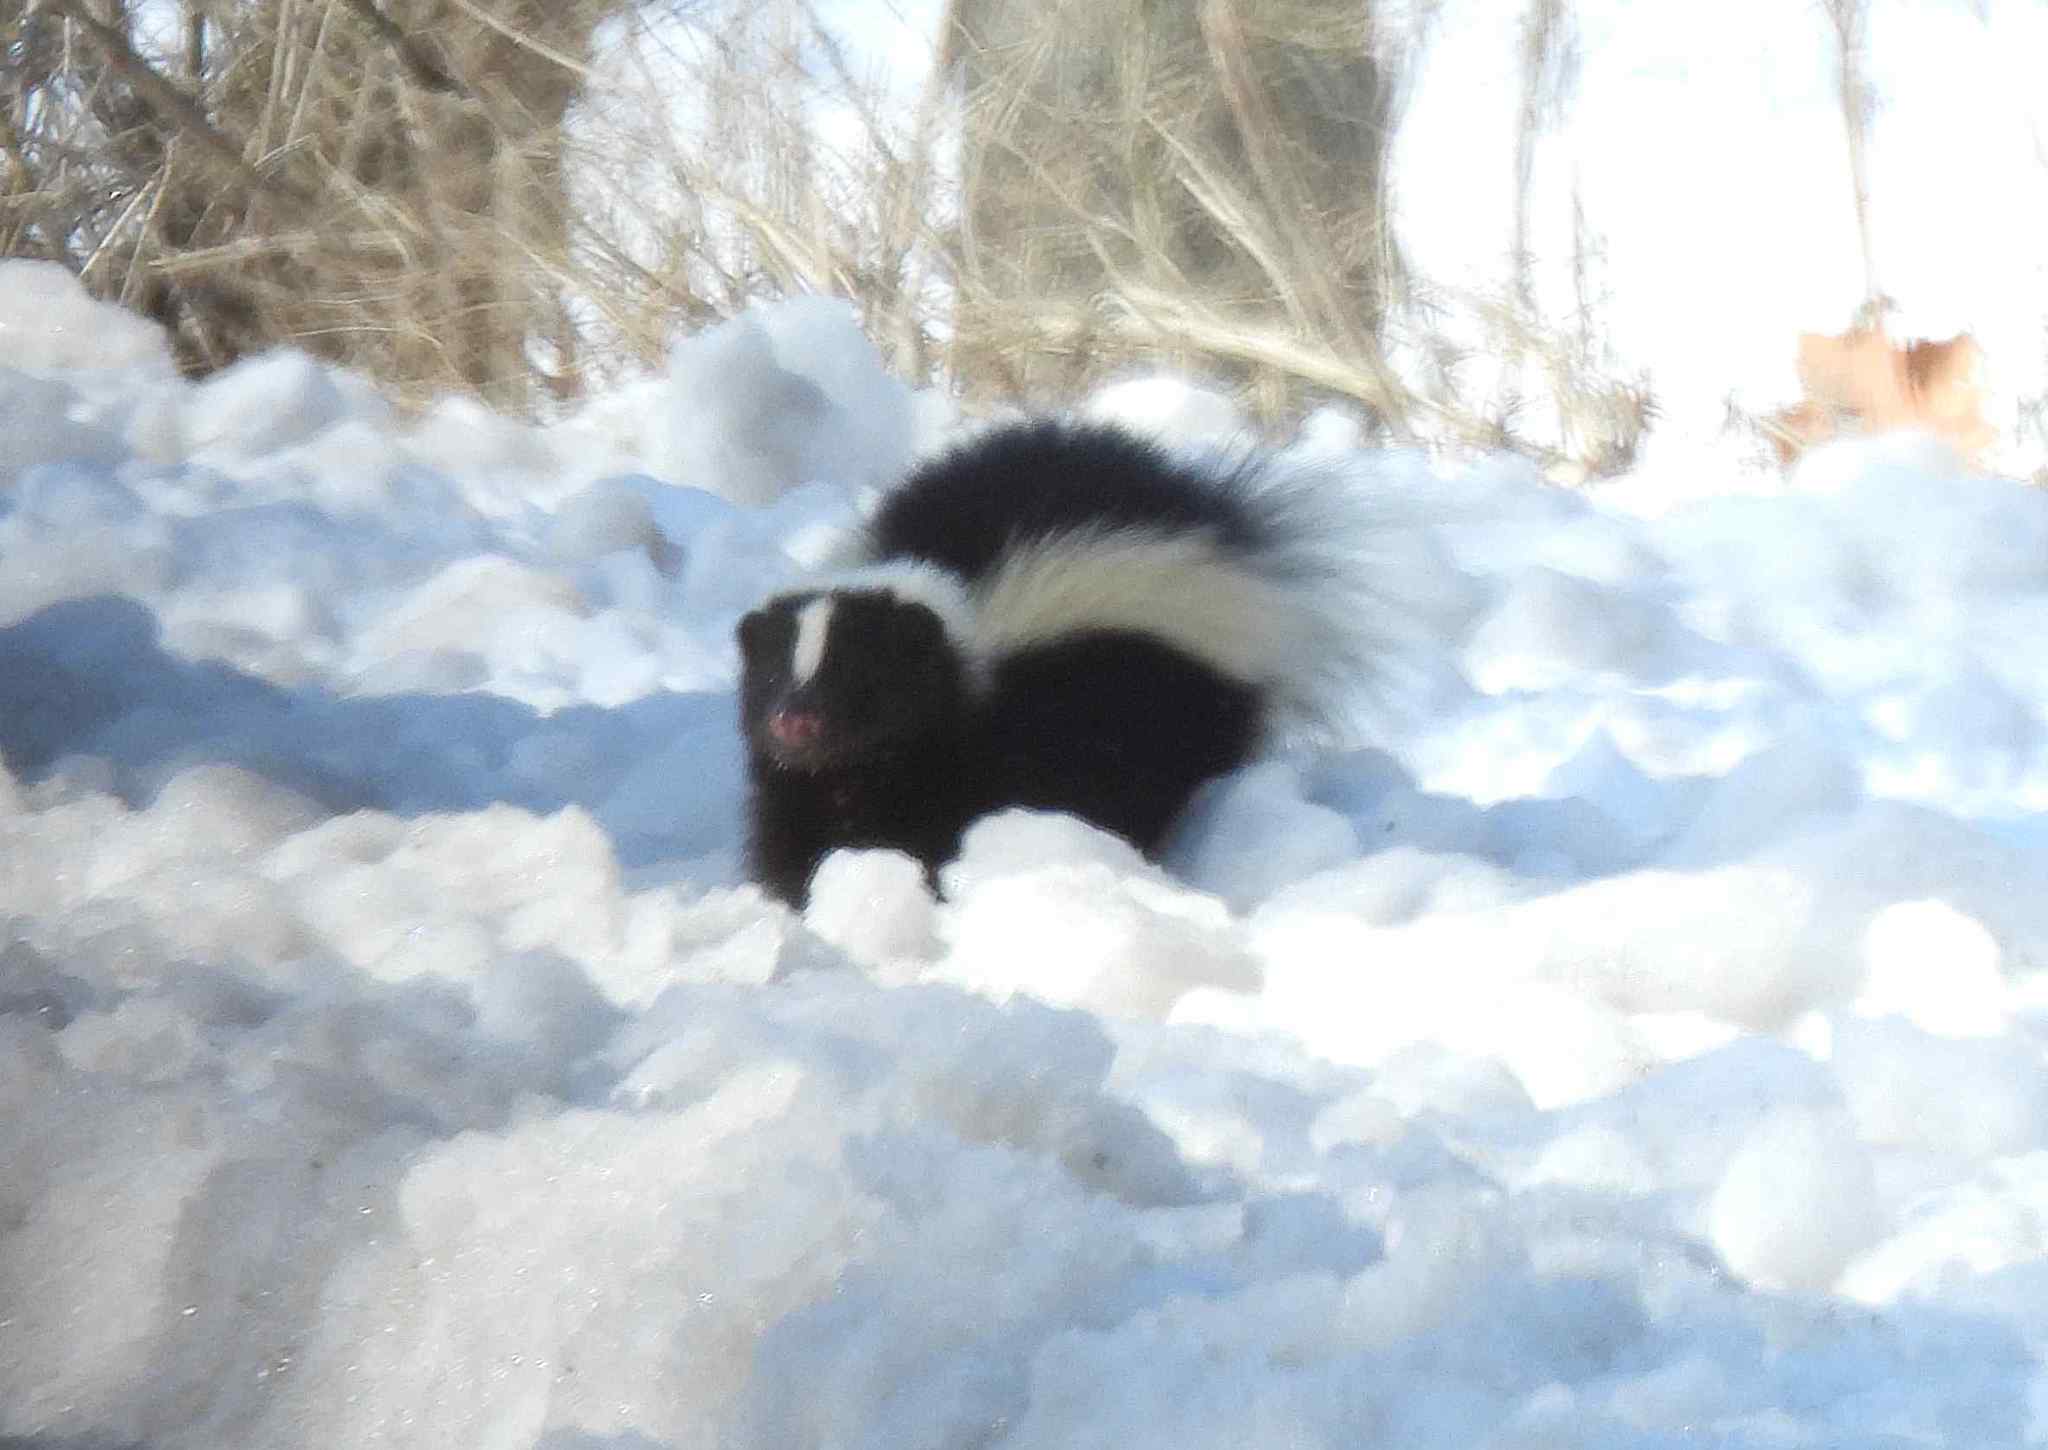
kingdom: Animalia
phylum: Chordata
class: Mammalia
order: Carnivora
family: Mephitidae
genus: Mephitis
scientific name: Mephitis mephitis
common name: Striped skunk
